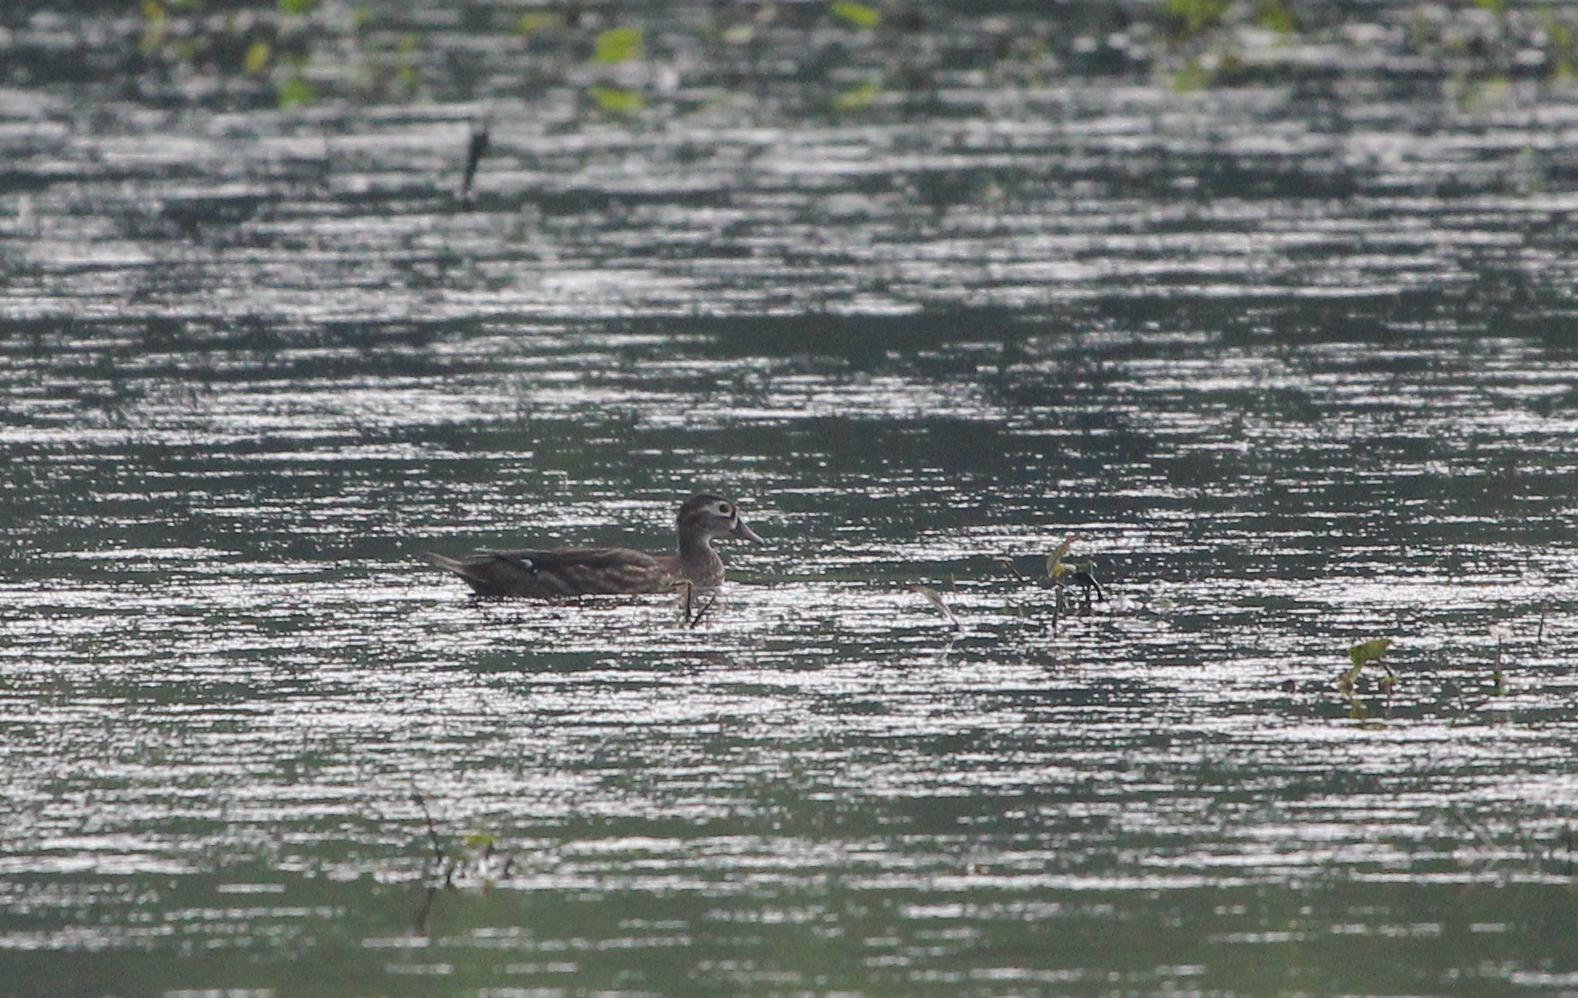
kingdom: Animalia
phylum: Chordata
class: Aves
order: Anseriformes
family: Anatidae
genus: Aix
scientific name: Aix sponsa
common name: Wood duck
